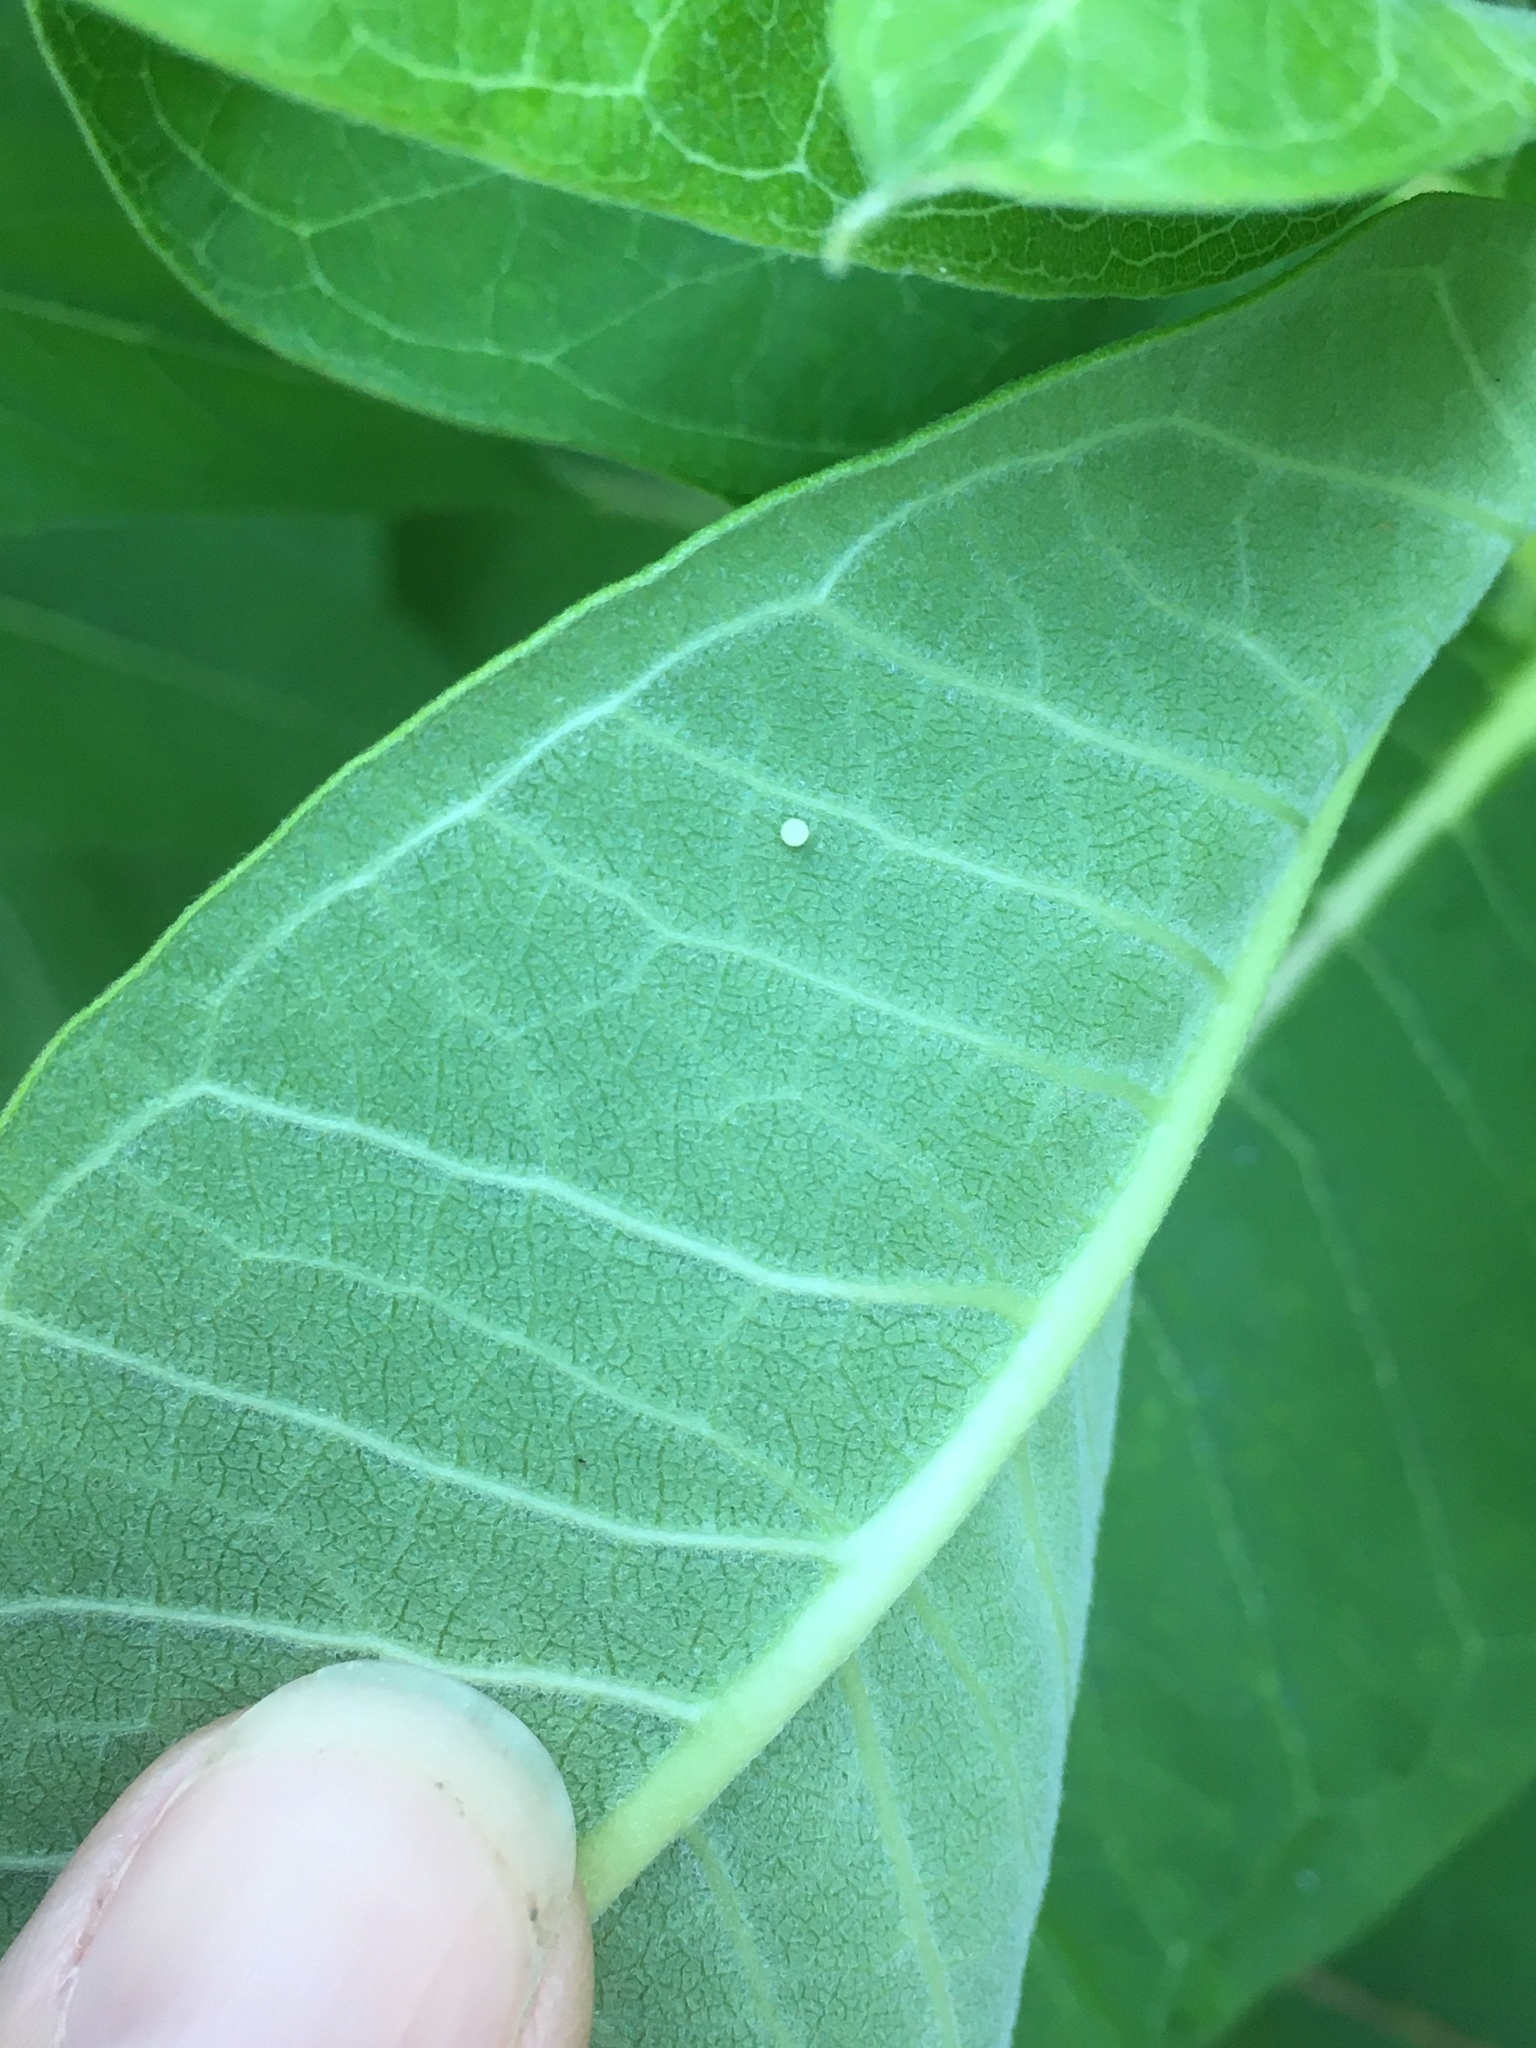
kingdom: Animalia
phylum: Arthropoda
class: Insecta
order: Lepidoptera
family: Nymphalidae
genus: Danaus
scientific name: Danaus plexippus
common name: Monarch
